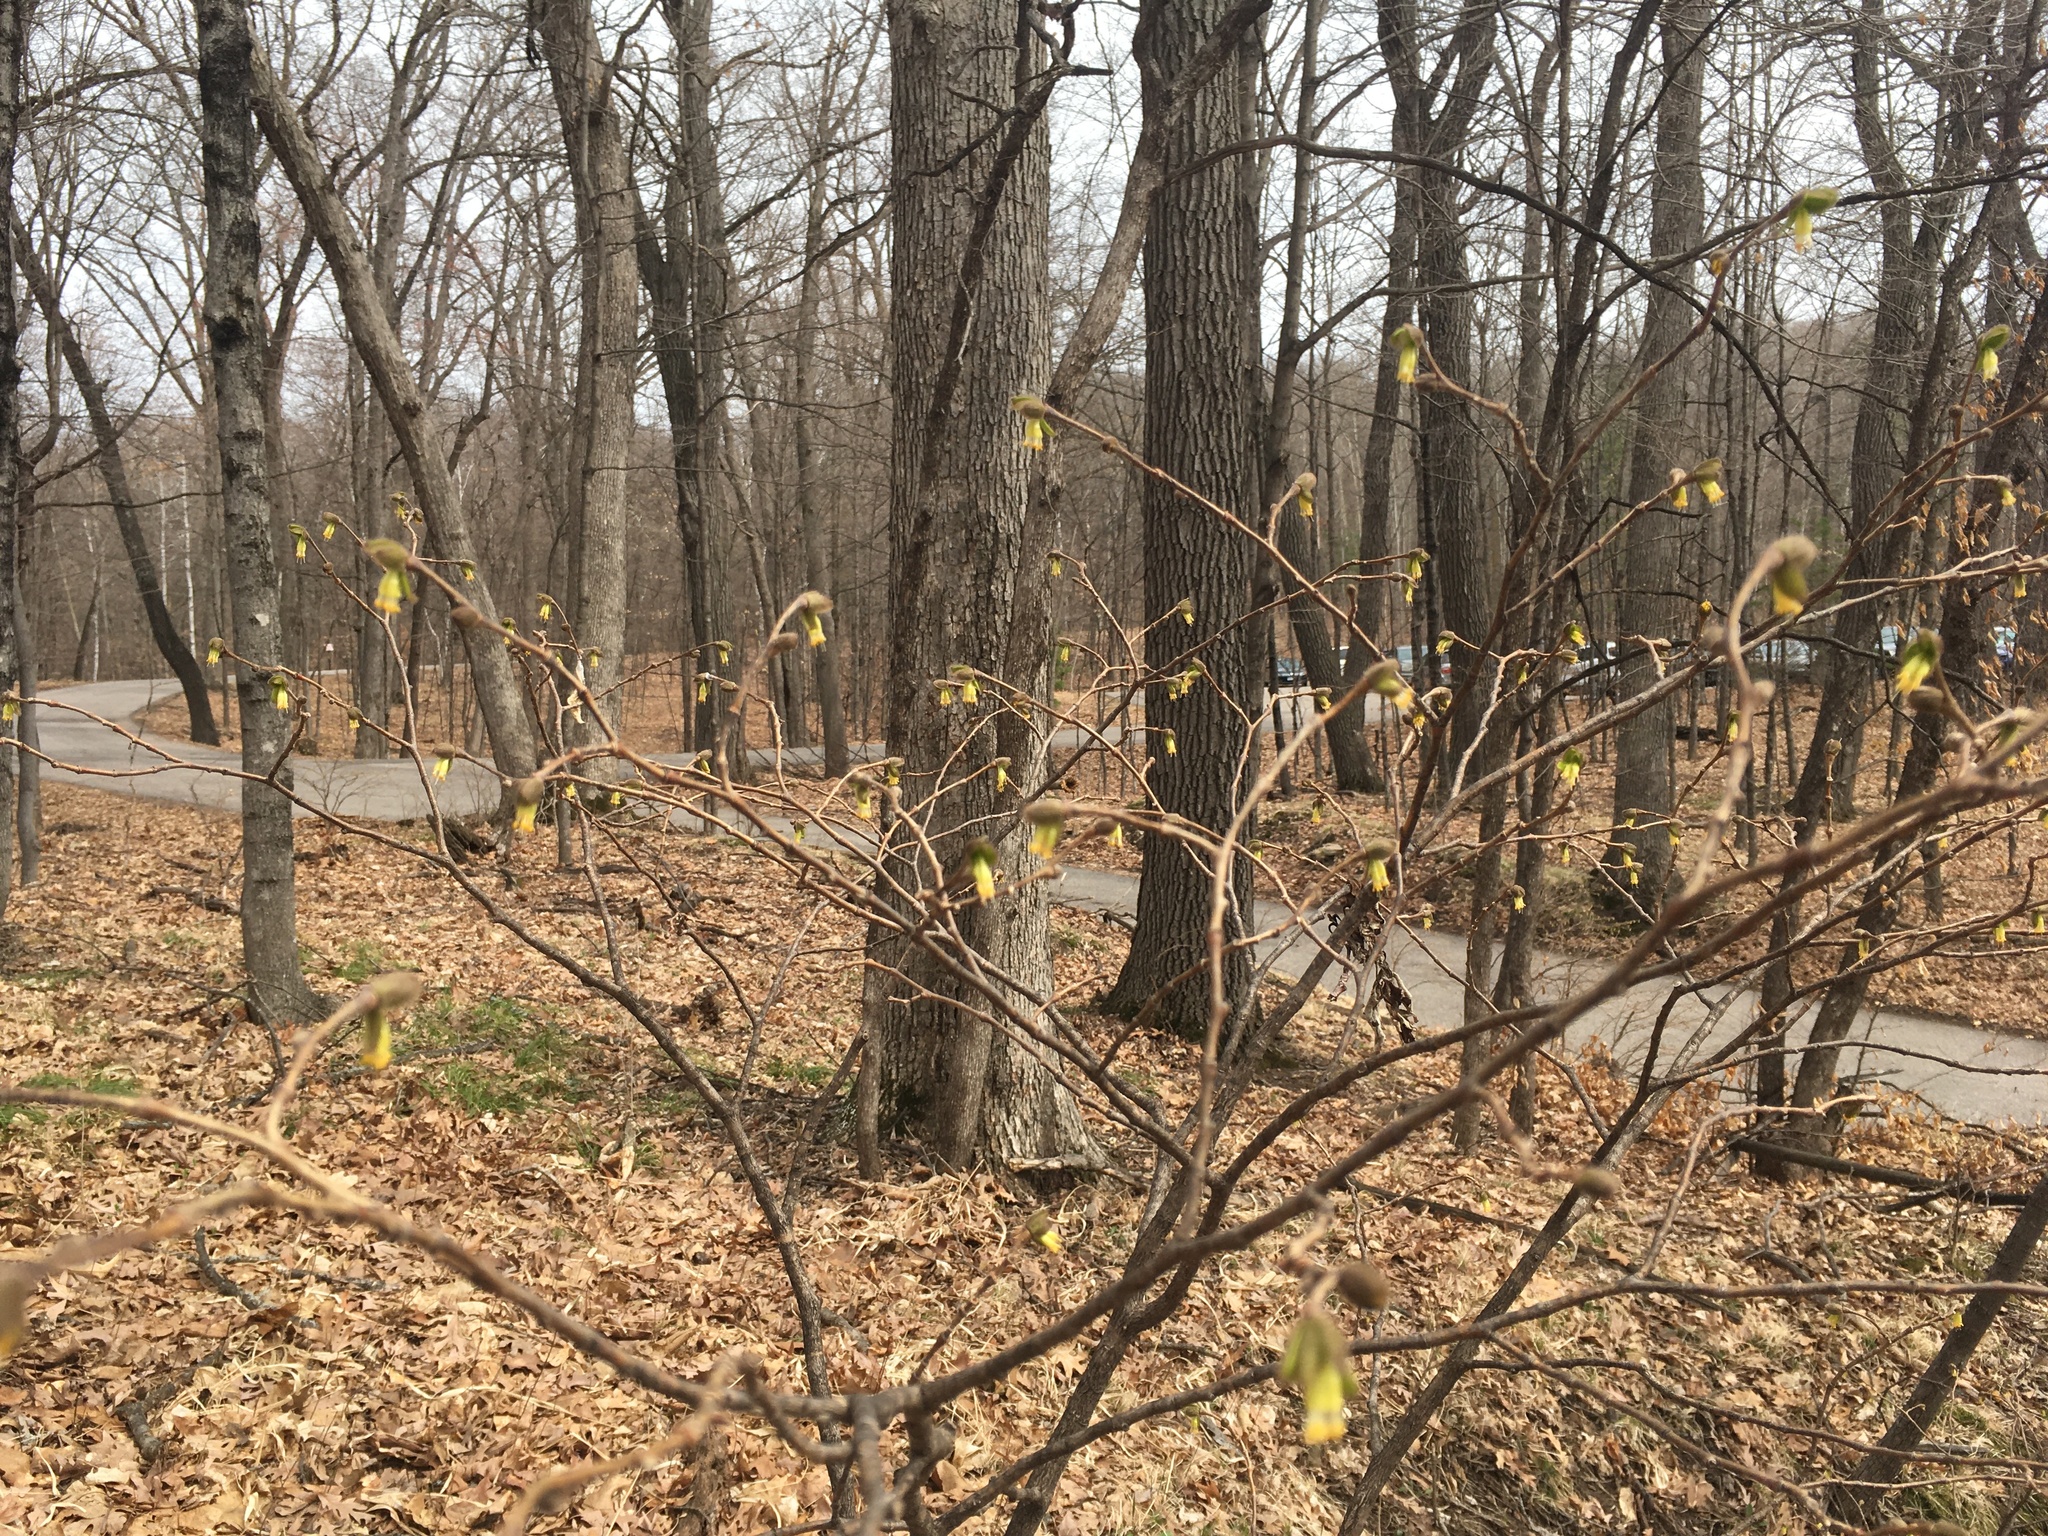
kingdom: Plantae
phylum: Tracheophyta
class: Magnoliopsida
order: Malvales
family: Thymelaeaceae
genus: Dirca
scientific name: Dirca palustris
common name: Leatherwood
